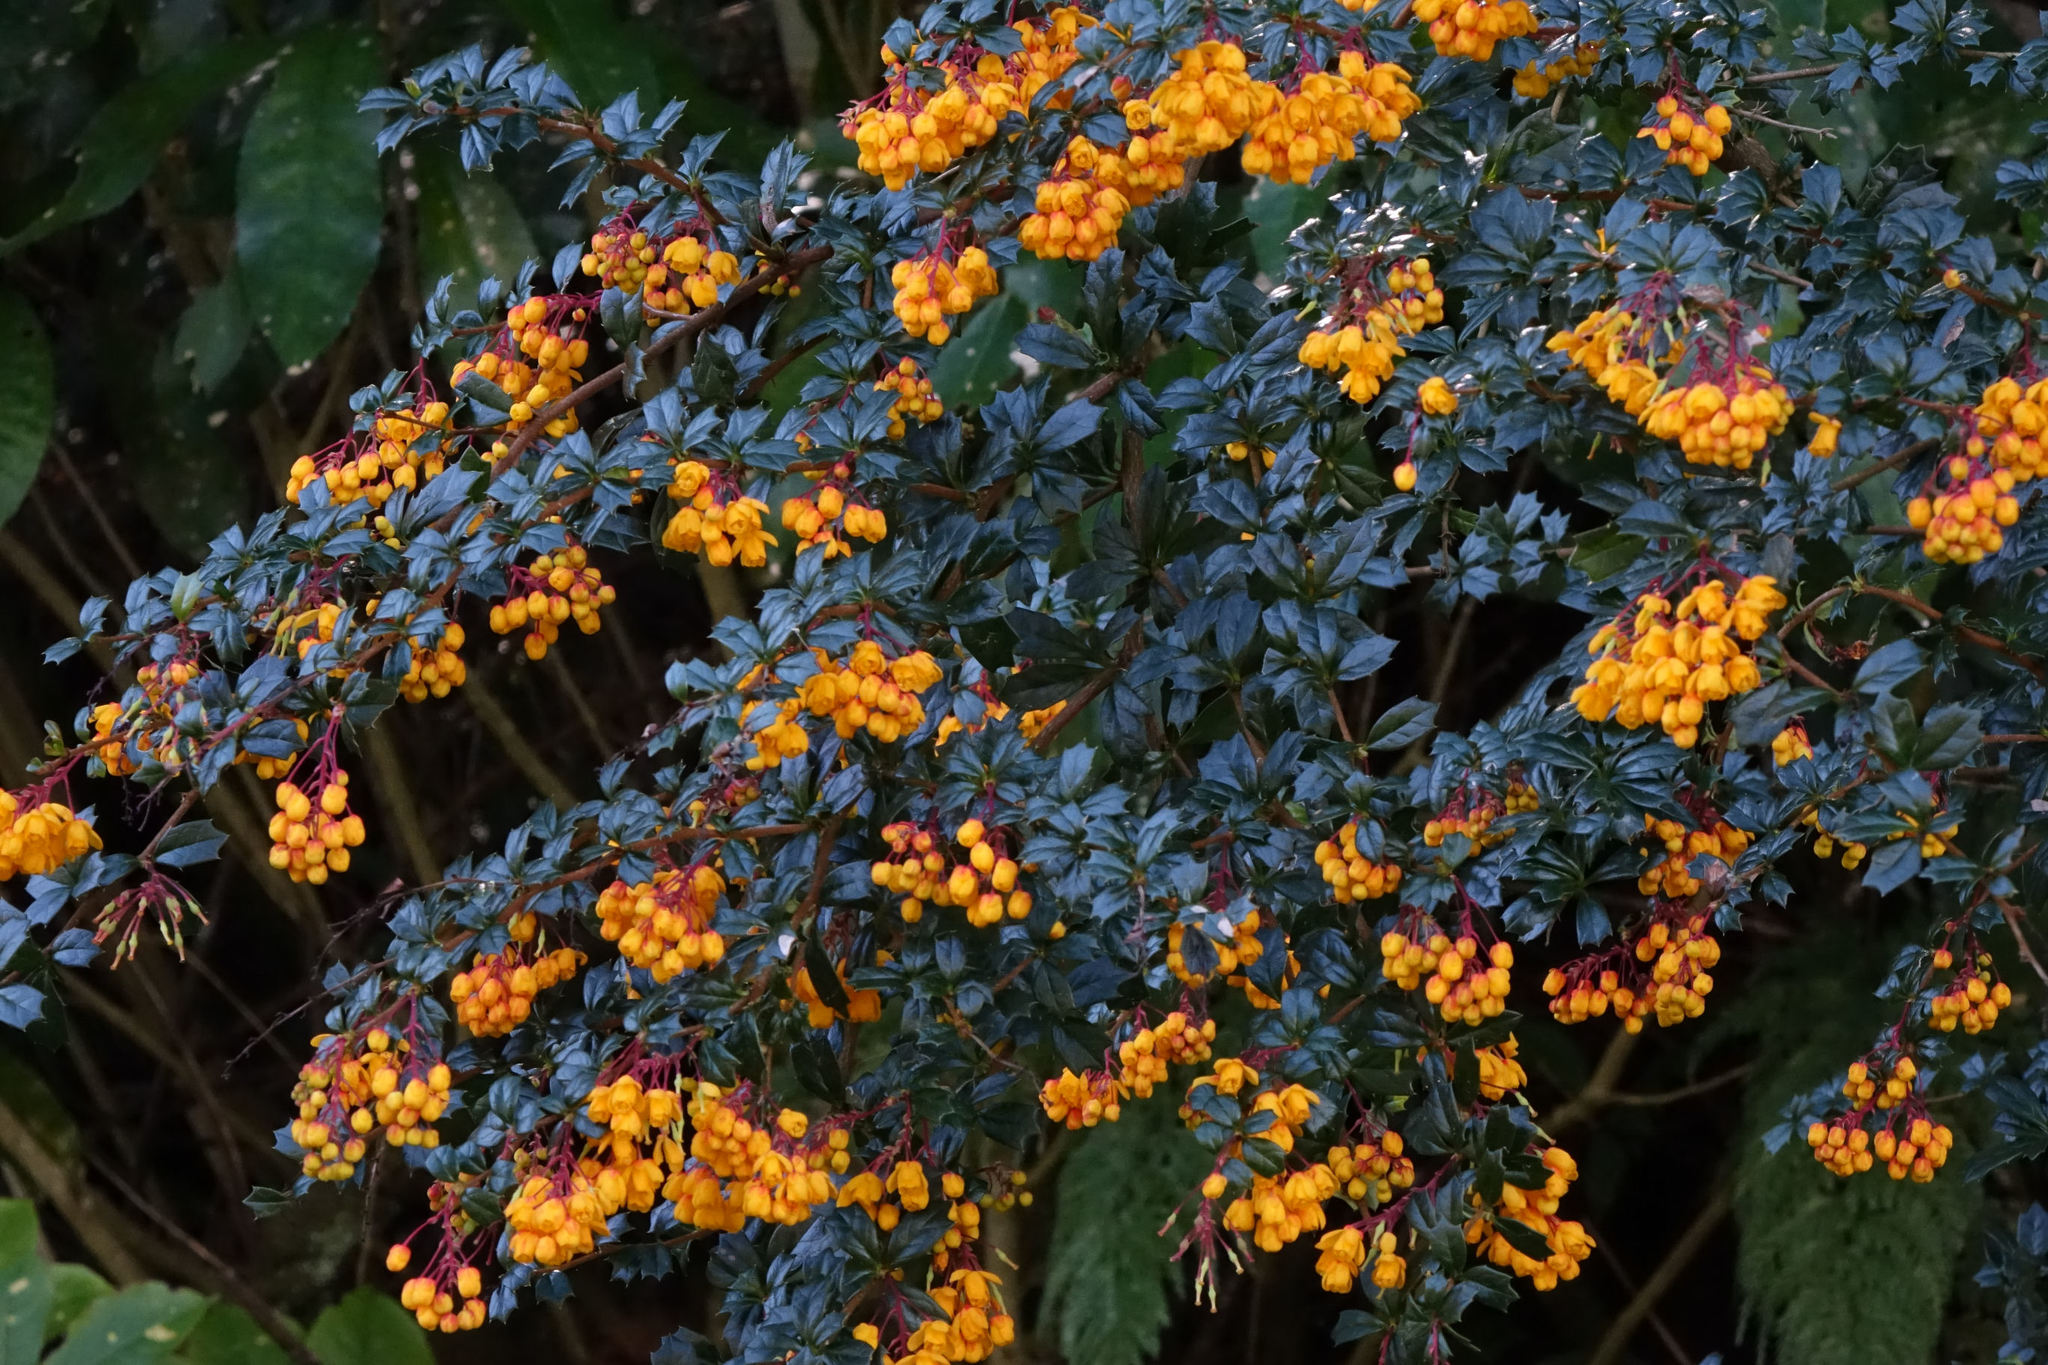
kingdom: Plantae
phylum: Tracheophyta
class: Magnoliopsida
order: Ranunculales
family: Berberidaceae
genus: Berberis
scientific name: Berberis darwinii
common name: Darwin's barberry
